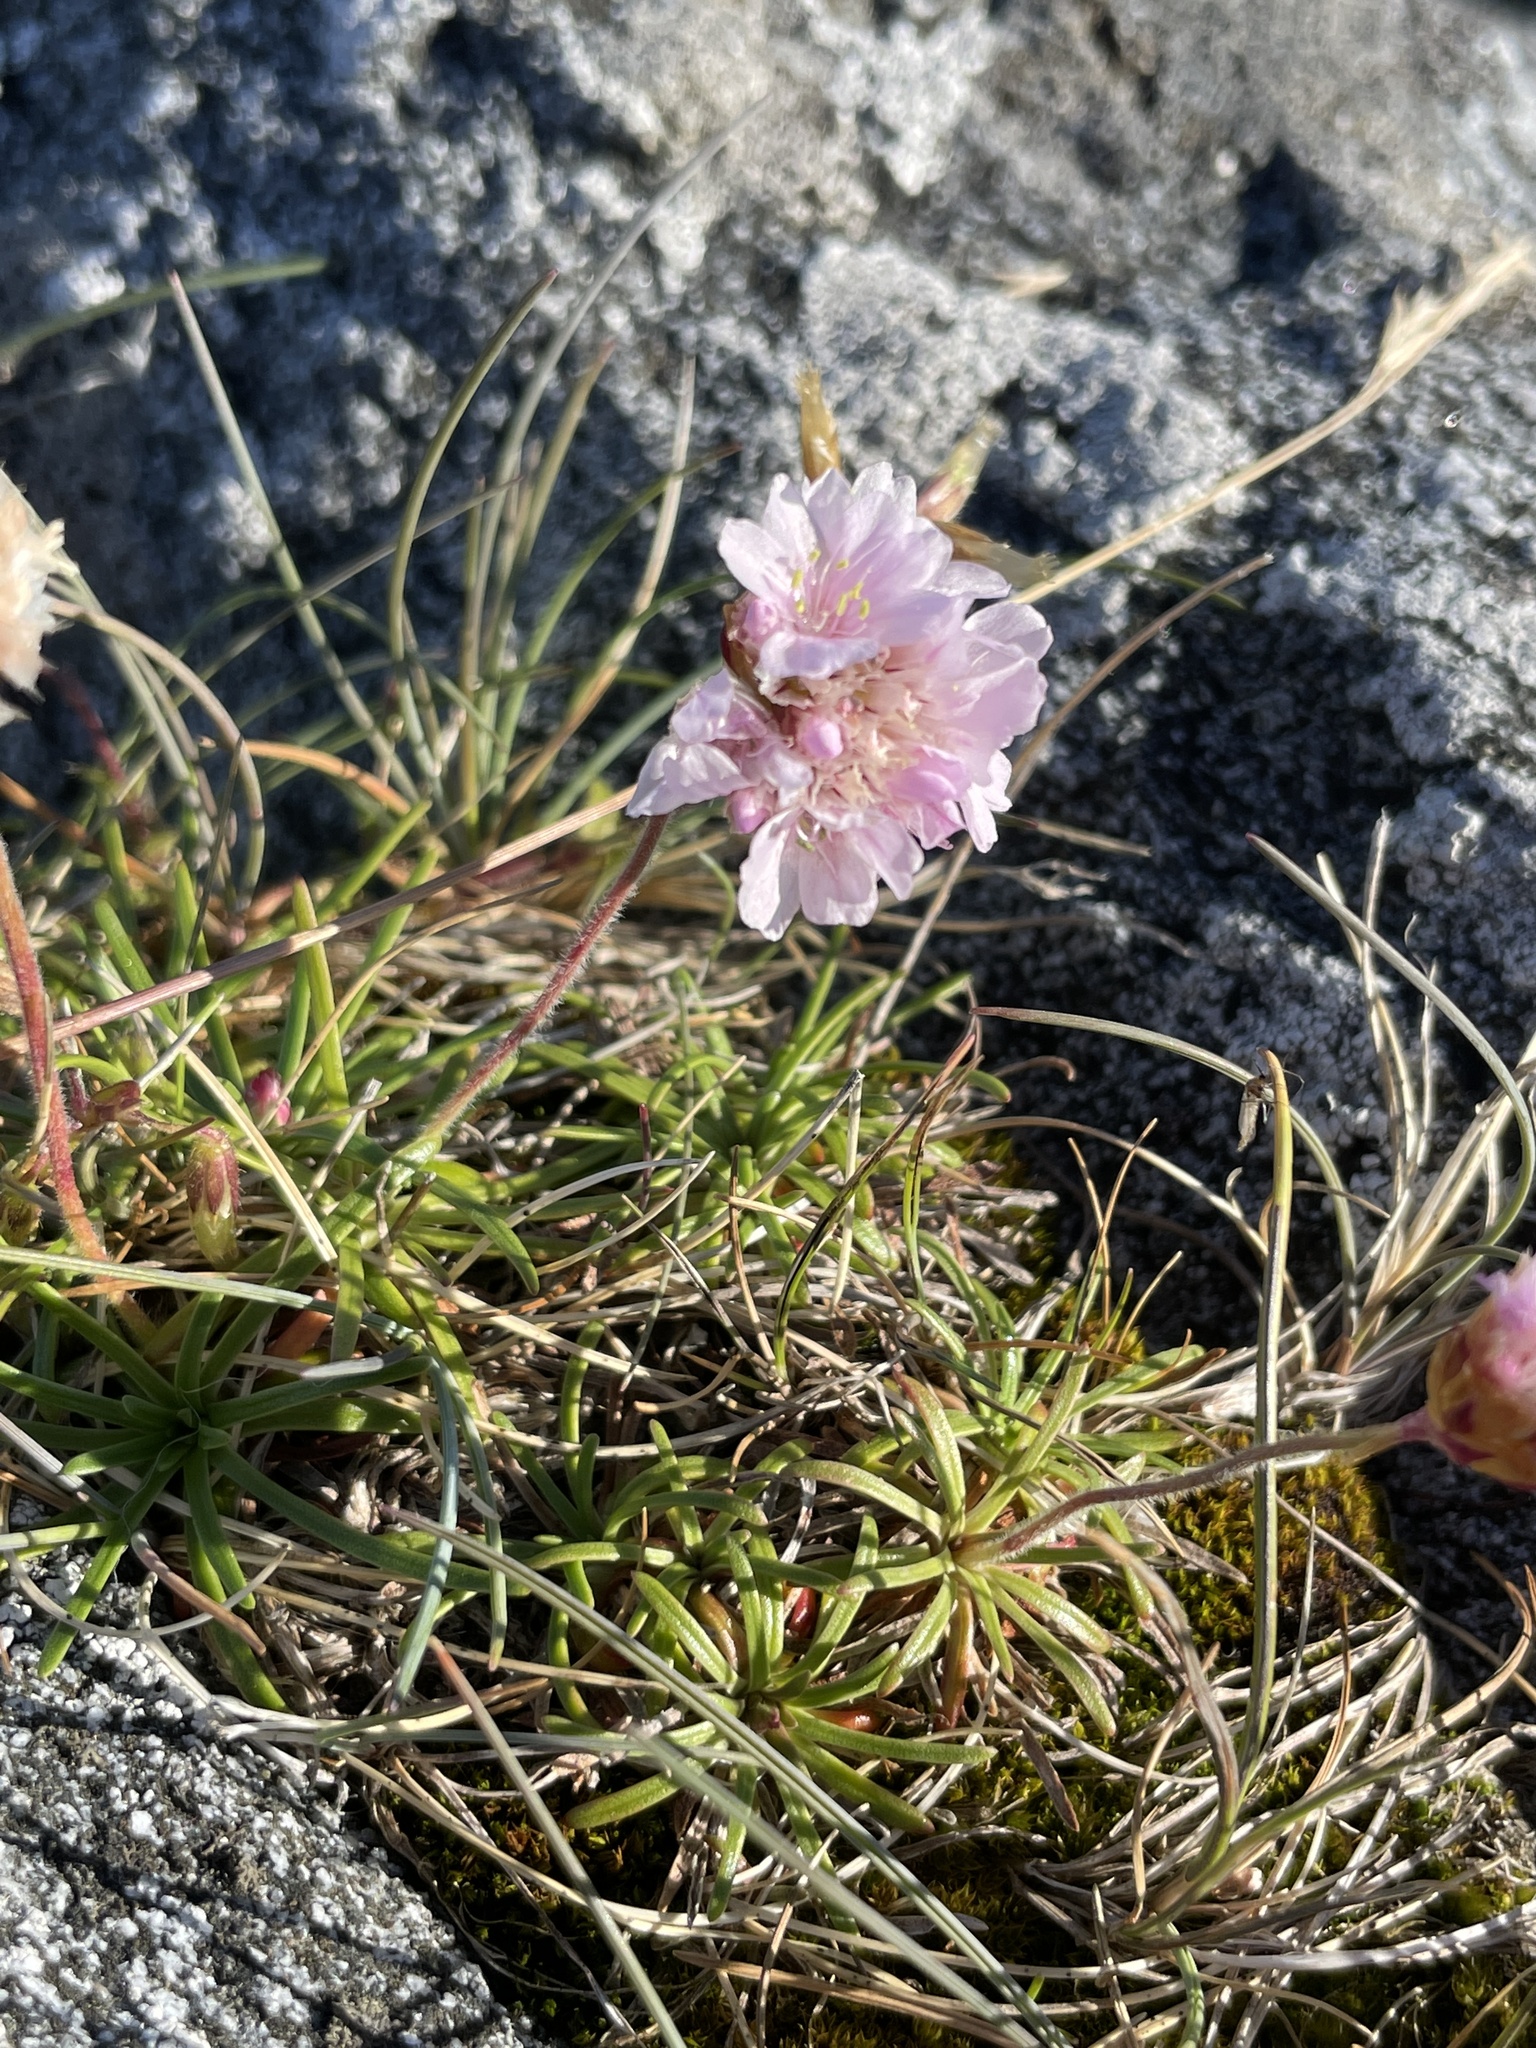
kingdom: Plantae
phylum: Tracheophyta
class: Magnoliopsida
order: Caryophyllales
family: Plumbaginaceae
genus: Armeria
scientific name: Armeria maritima
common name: Thrift
